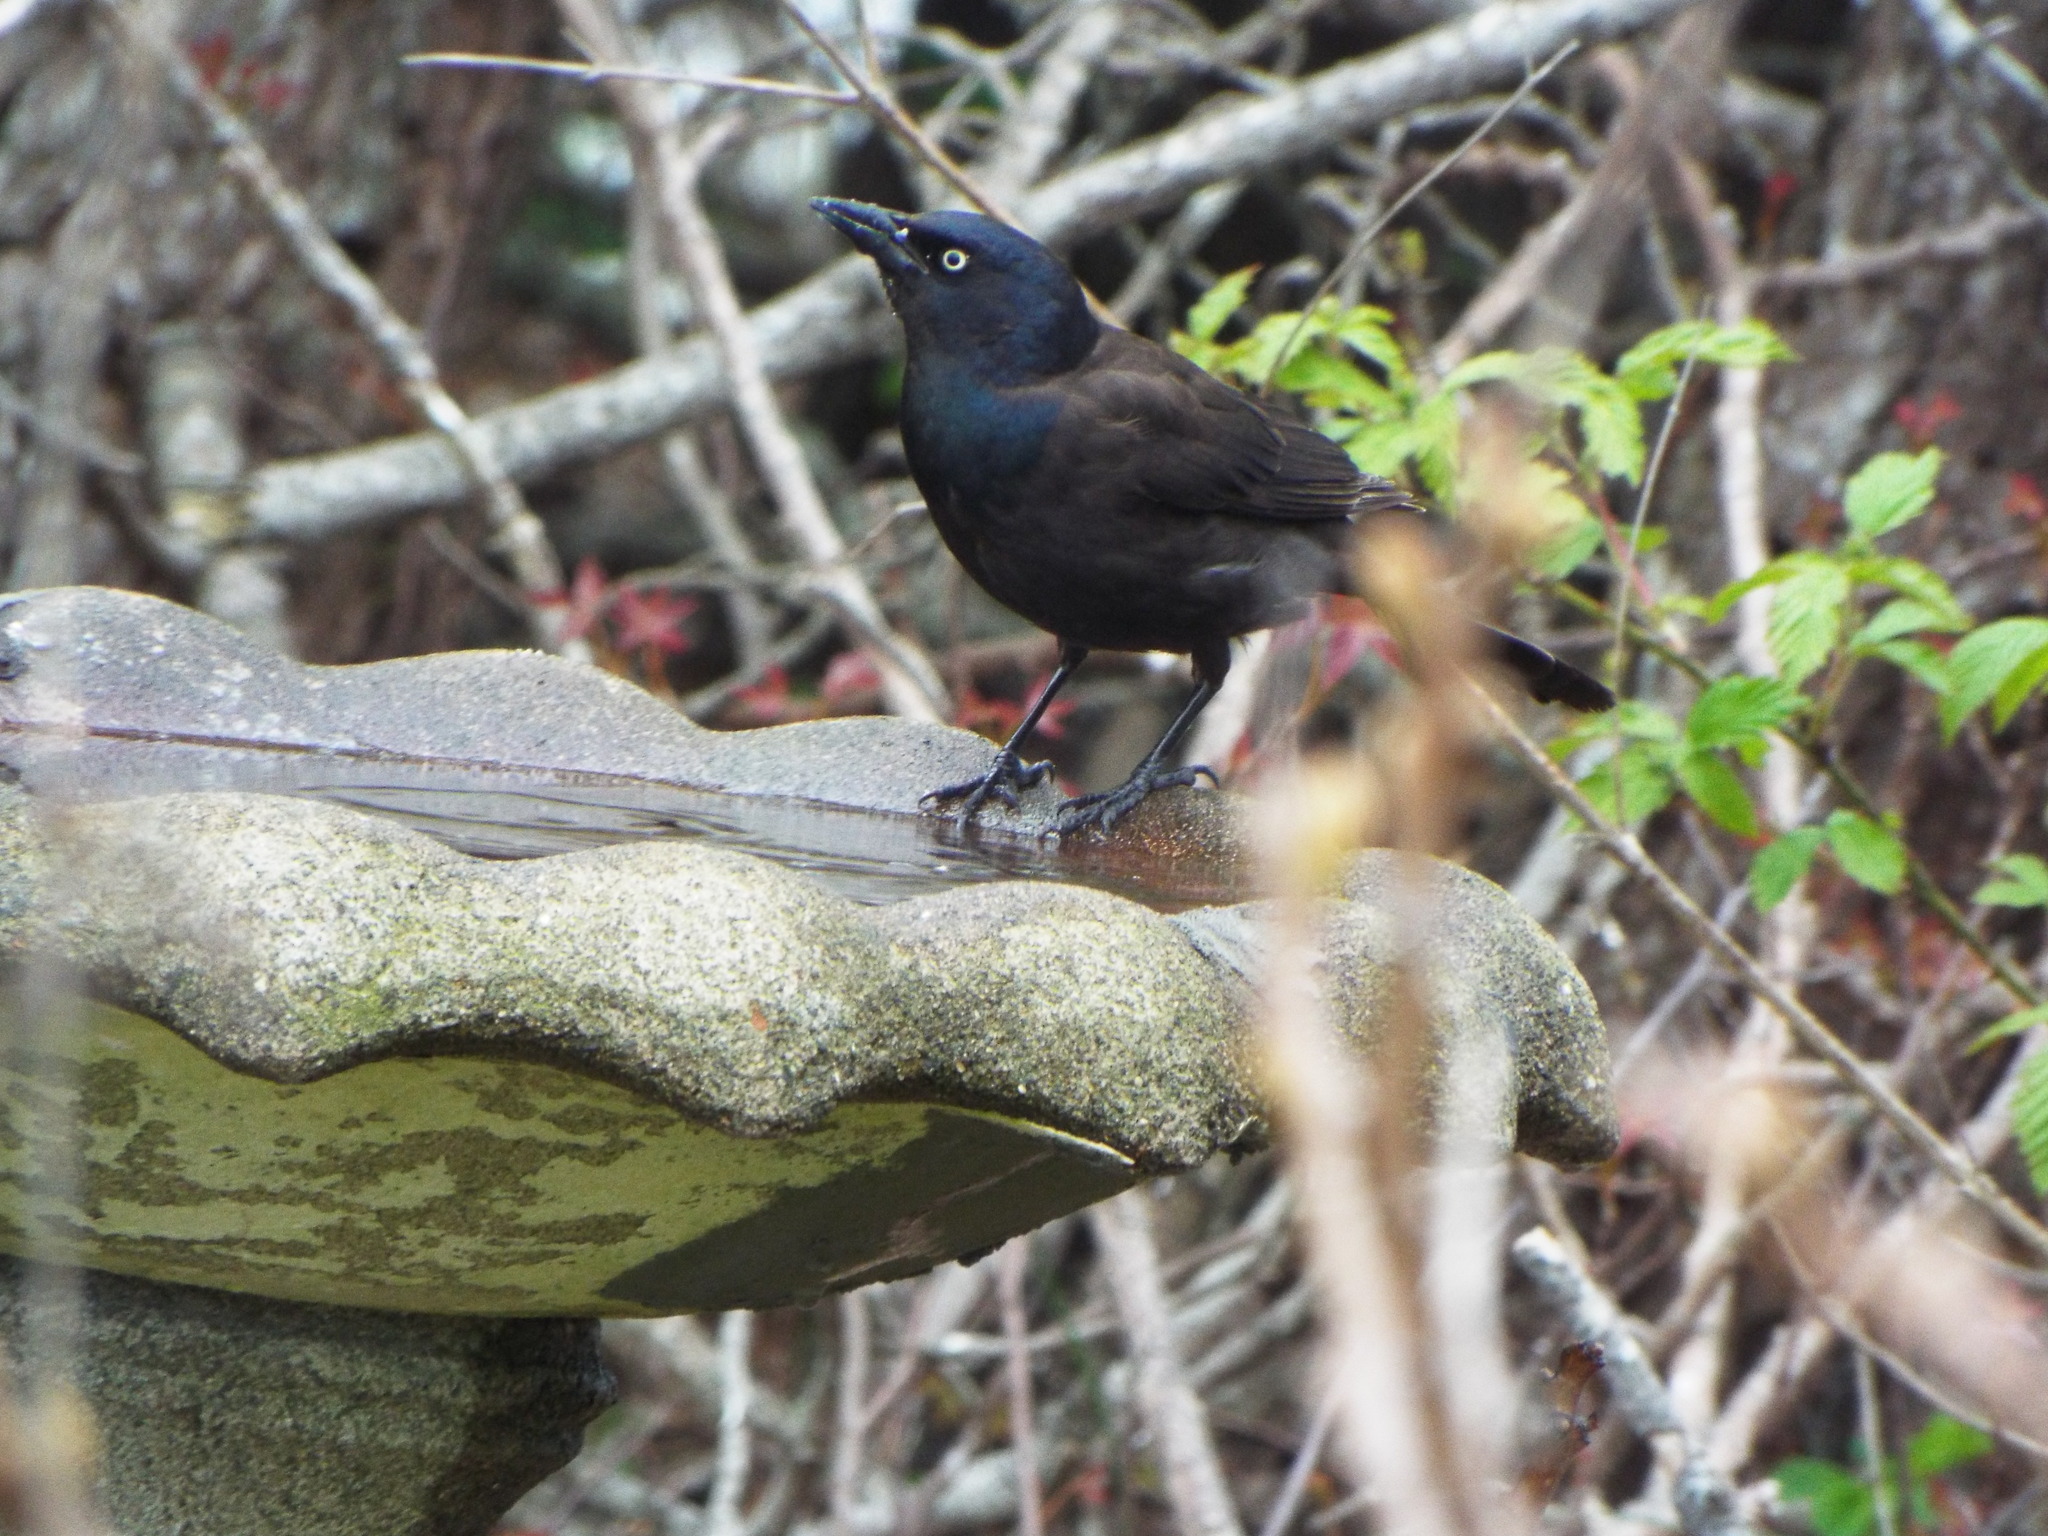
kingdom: Animalia
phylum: Chordata
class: Aves
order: Passeriformes
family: Icteridae
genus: Quiscalus
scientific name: Quiscalus quiscula
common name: Common grackle
